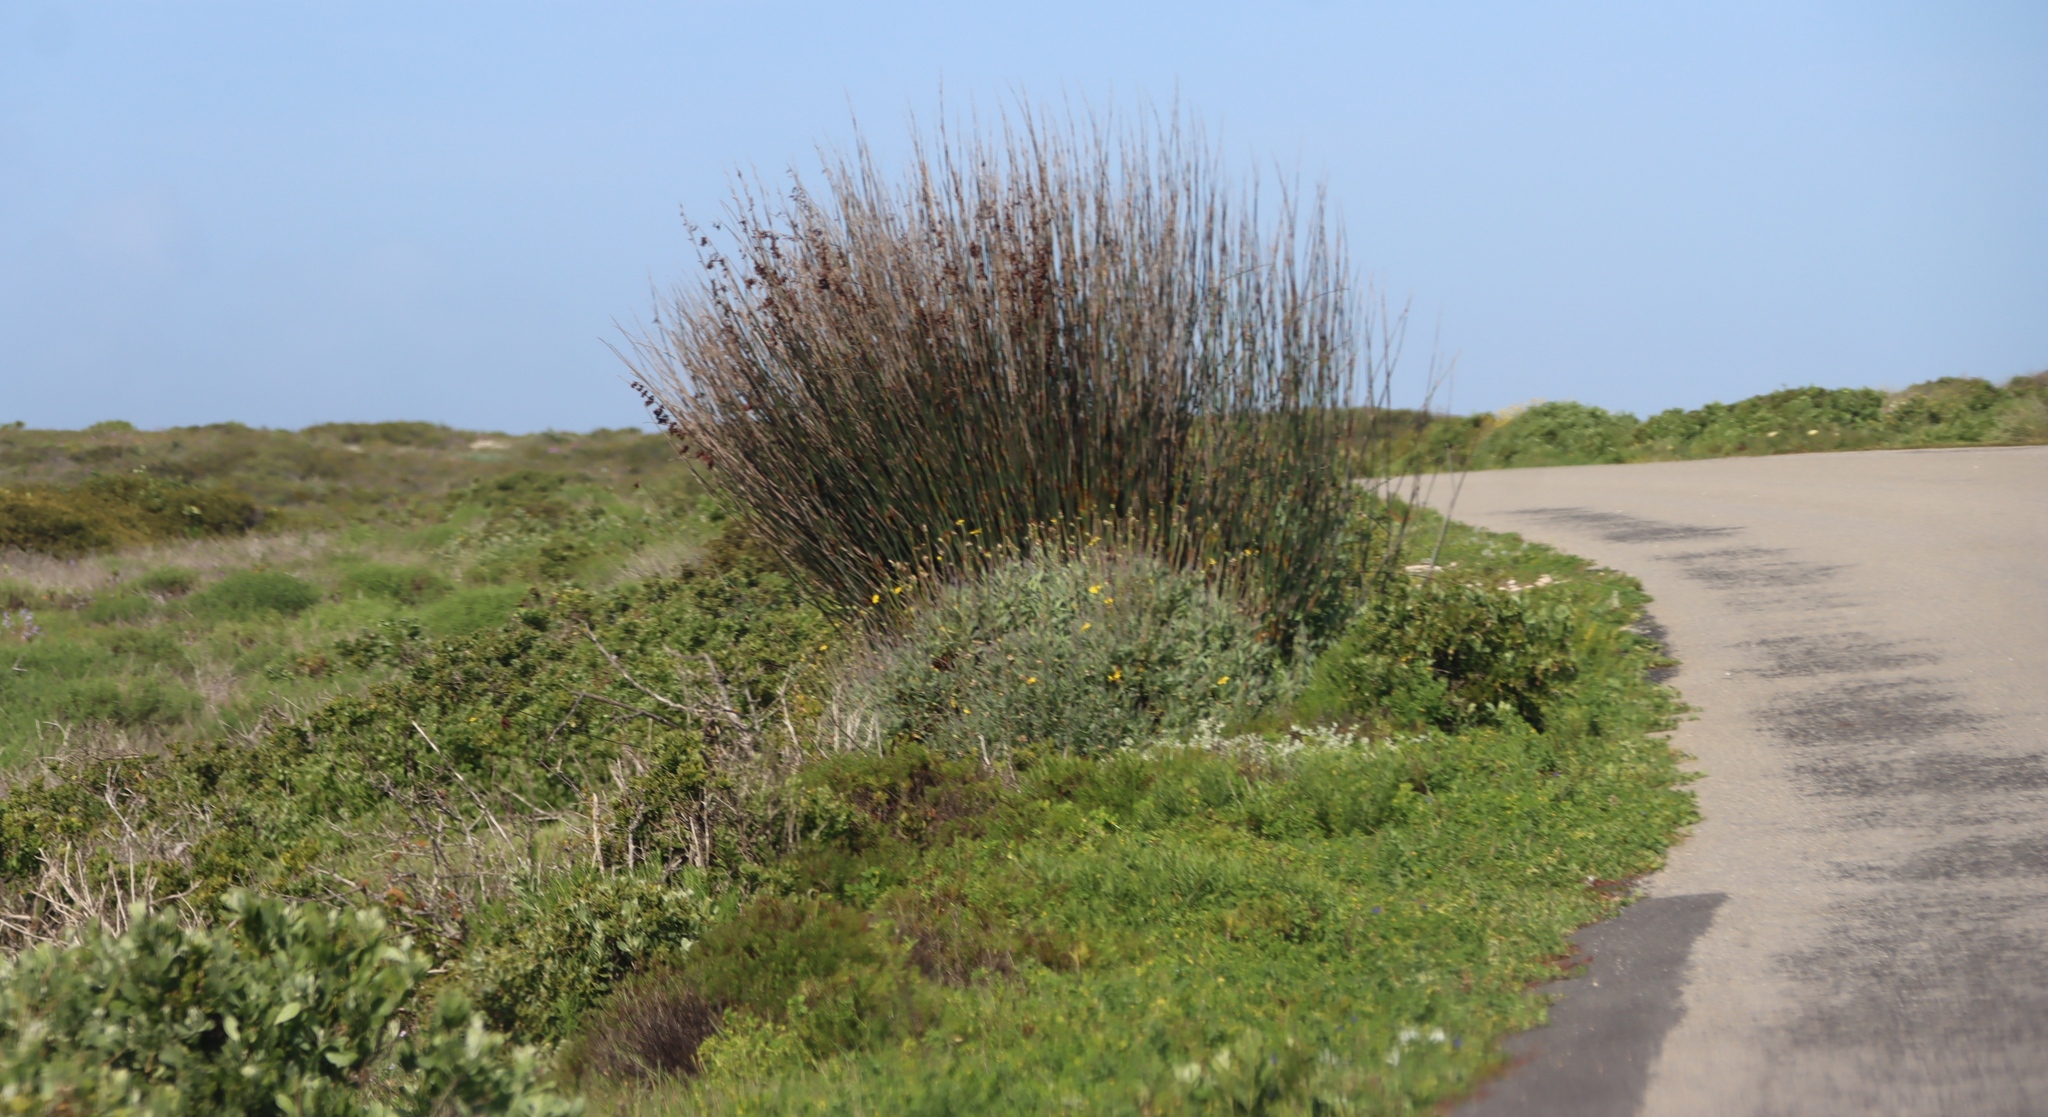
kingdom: Plantae
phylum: Tracheophyta
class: Liliopsida
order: Poales
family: Restionaceae
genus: Thamnochortus
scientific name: Thamnochortus spicigerus
